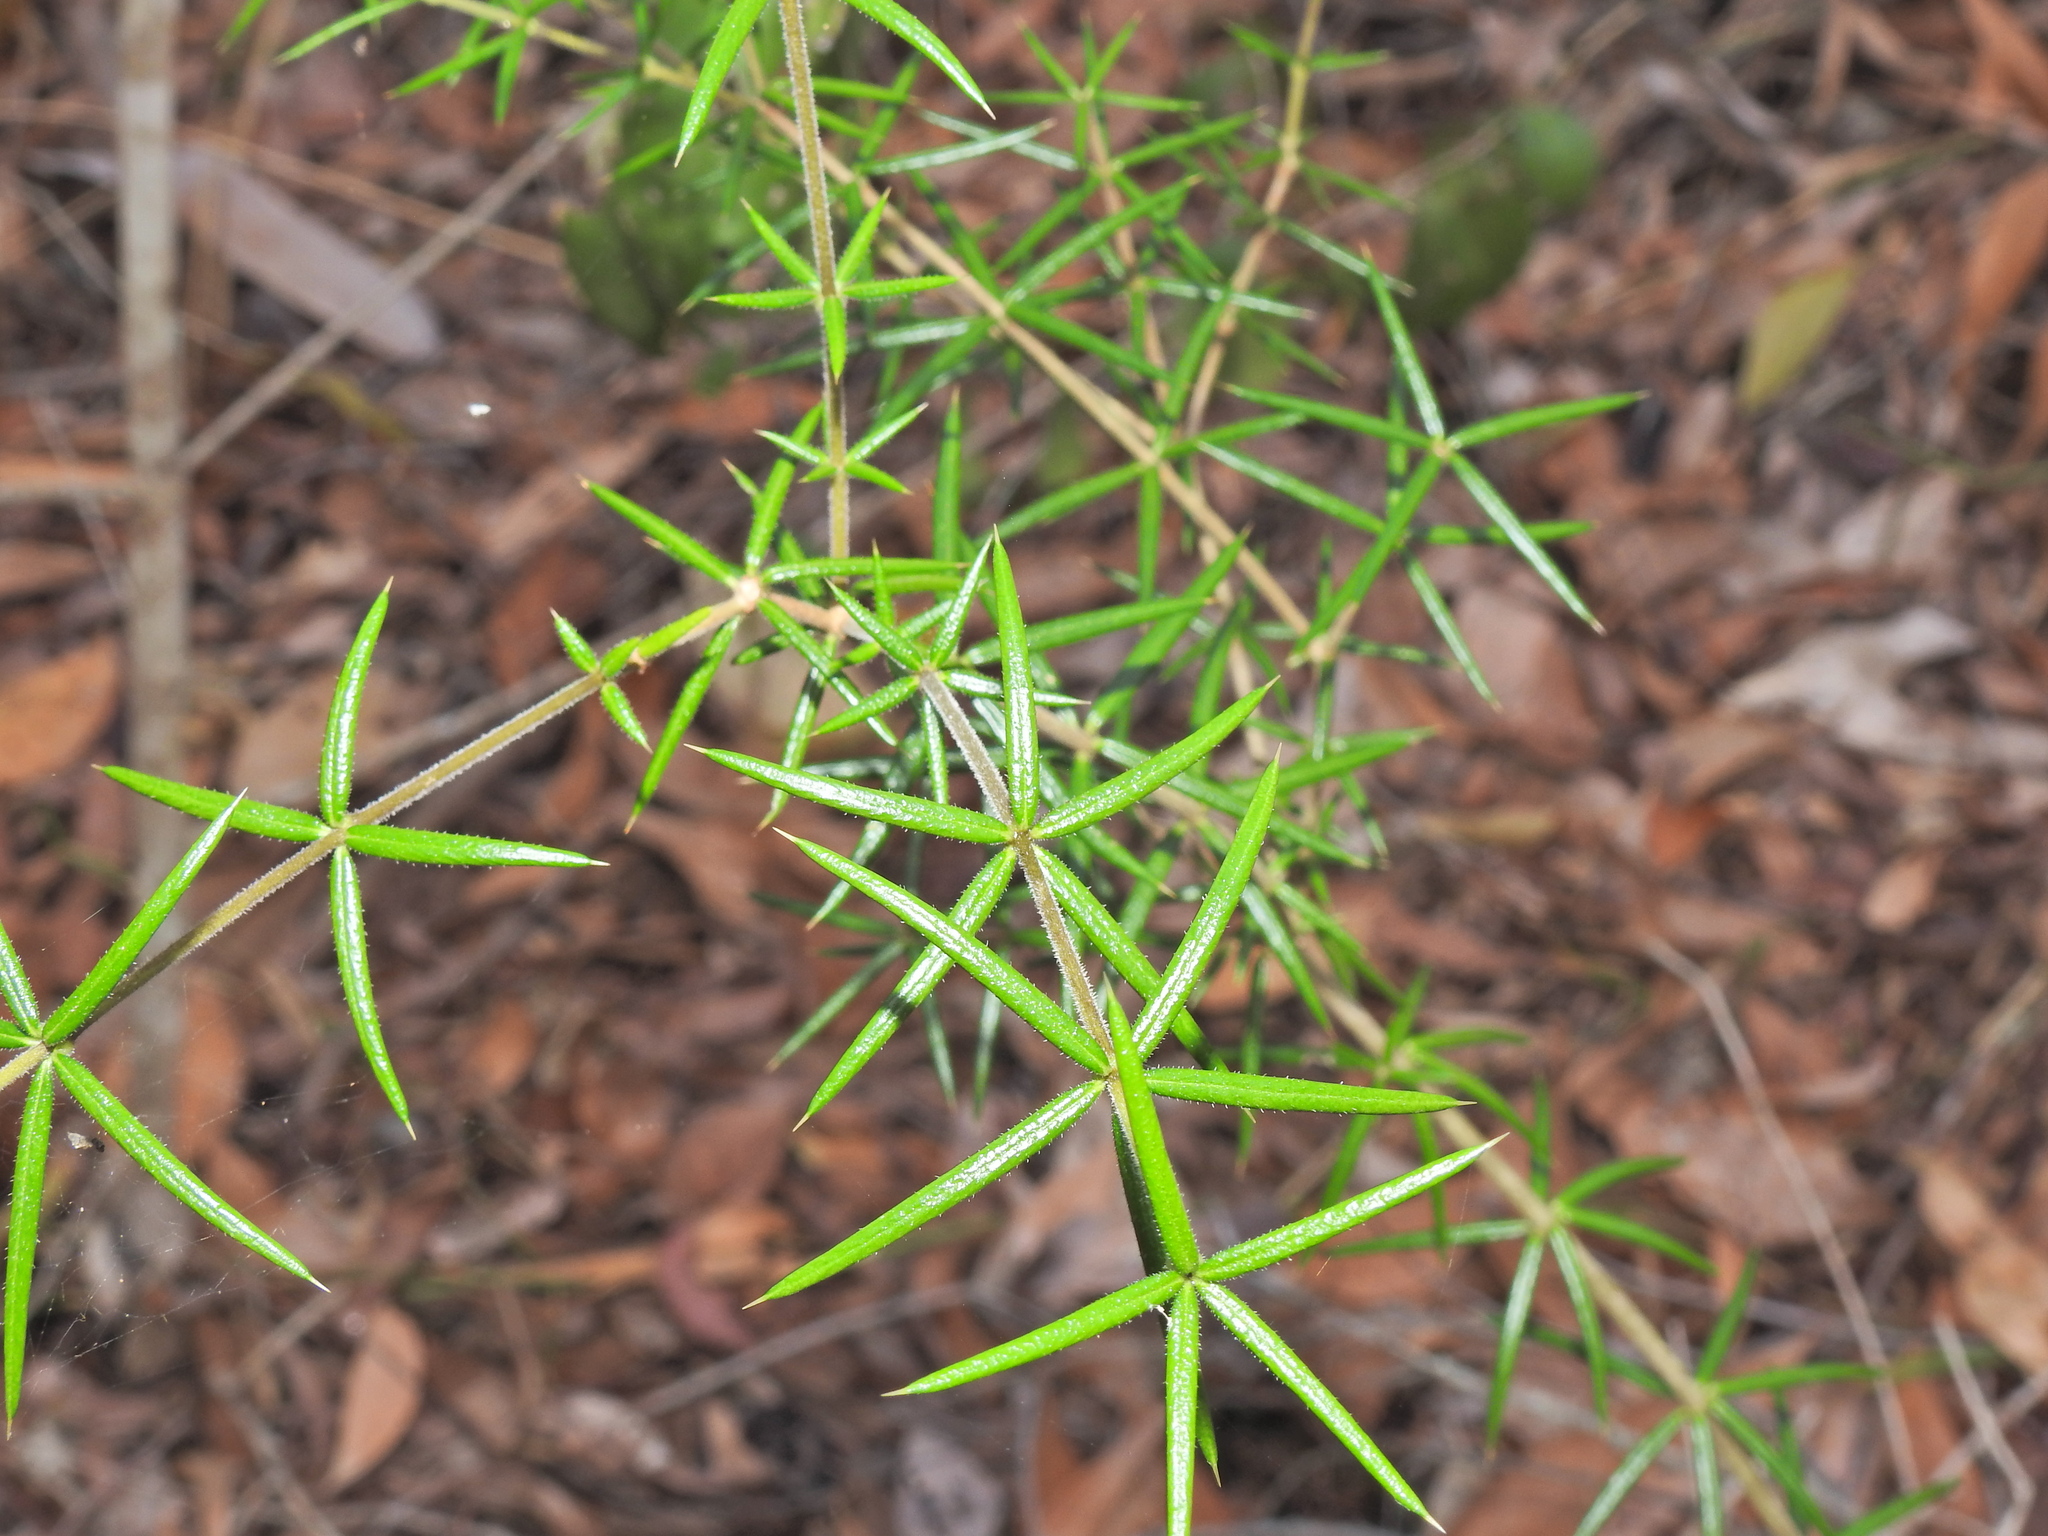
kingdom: Plantae
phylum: Tracheophyta
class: Magnoliopsida
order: Gentianales
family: Apocynaceae
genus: Alyxia
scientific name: Alyxia ruscifolia
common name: Chainfruit
